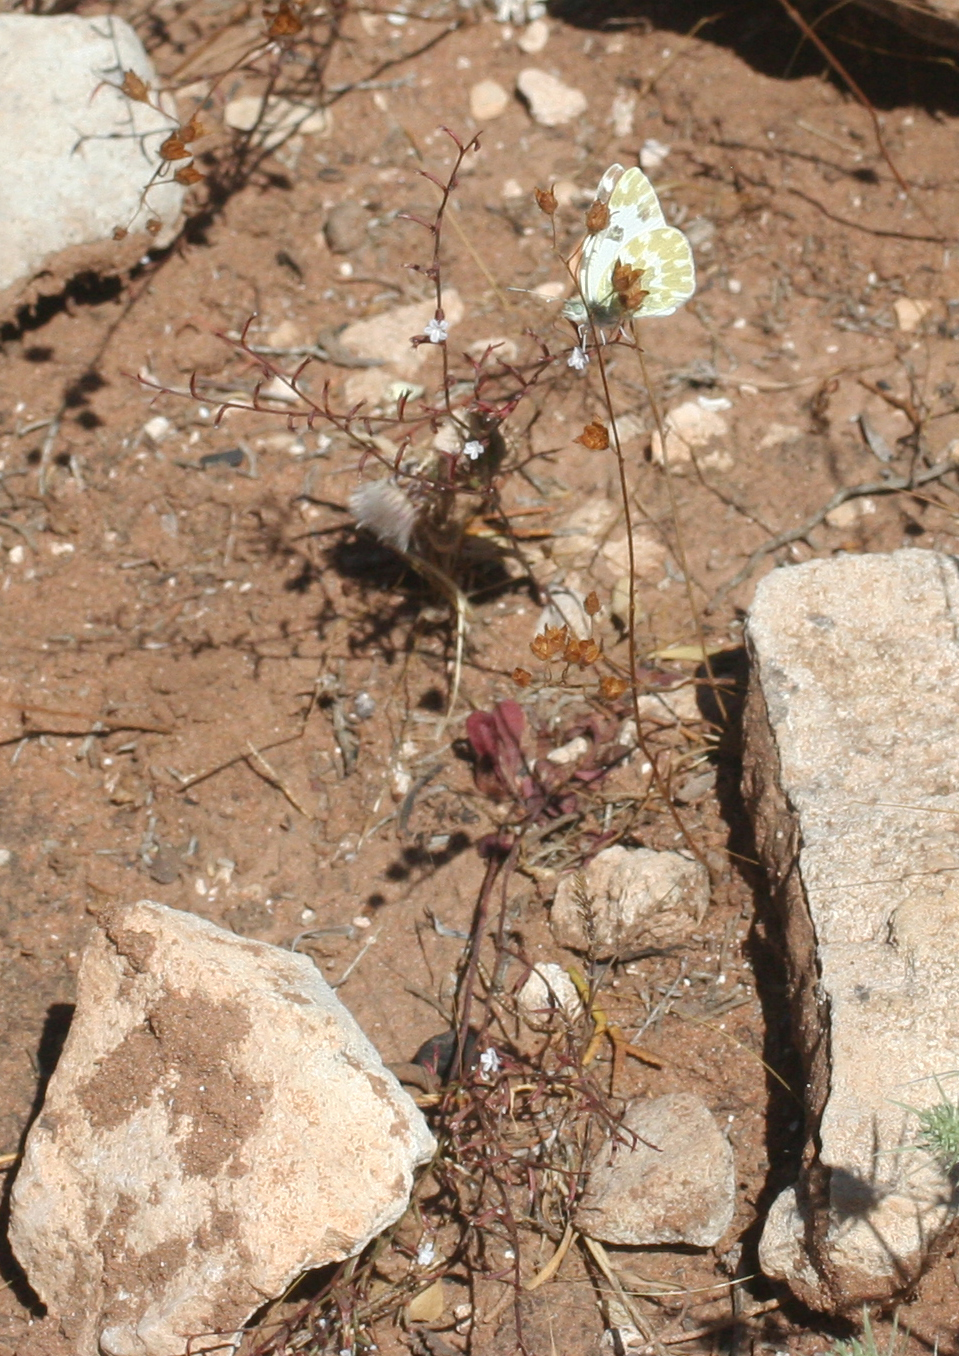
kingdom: Plantae
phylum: Tracheophyta
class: Magnoliopsida
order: Caryophyllales
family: Plumbaginaceae
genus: Limonium
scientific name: Limonium echioides
